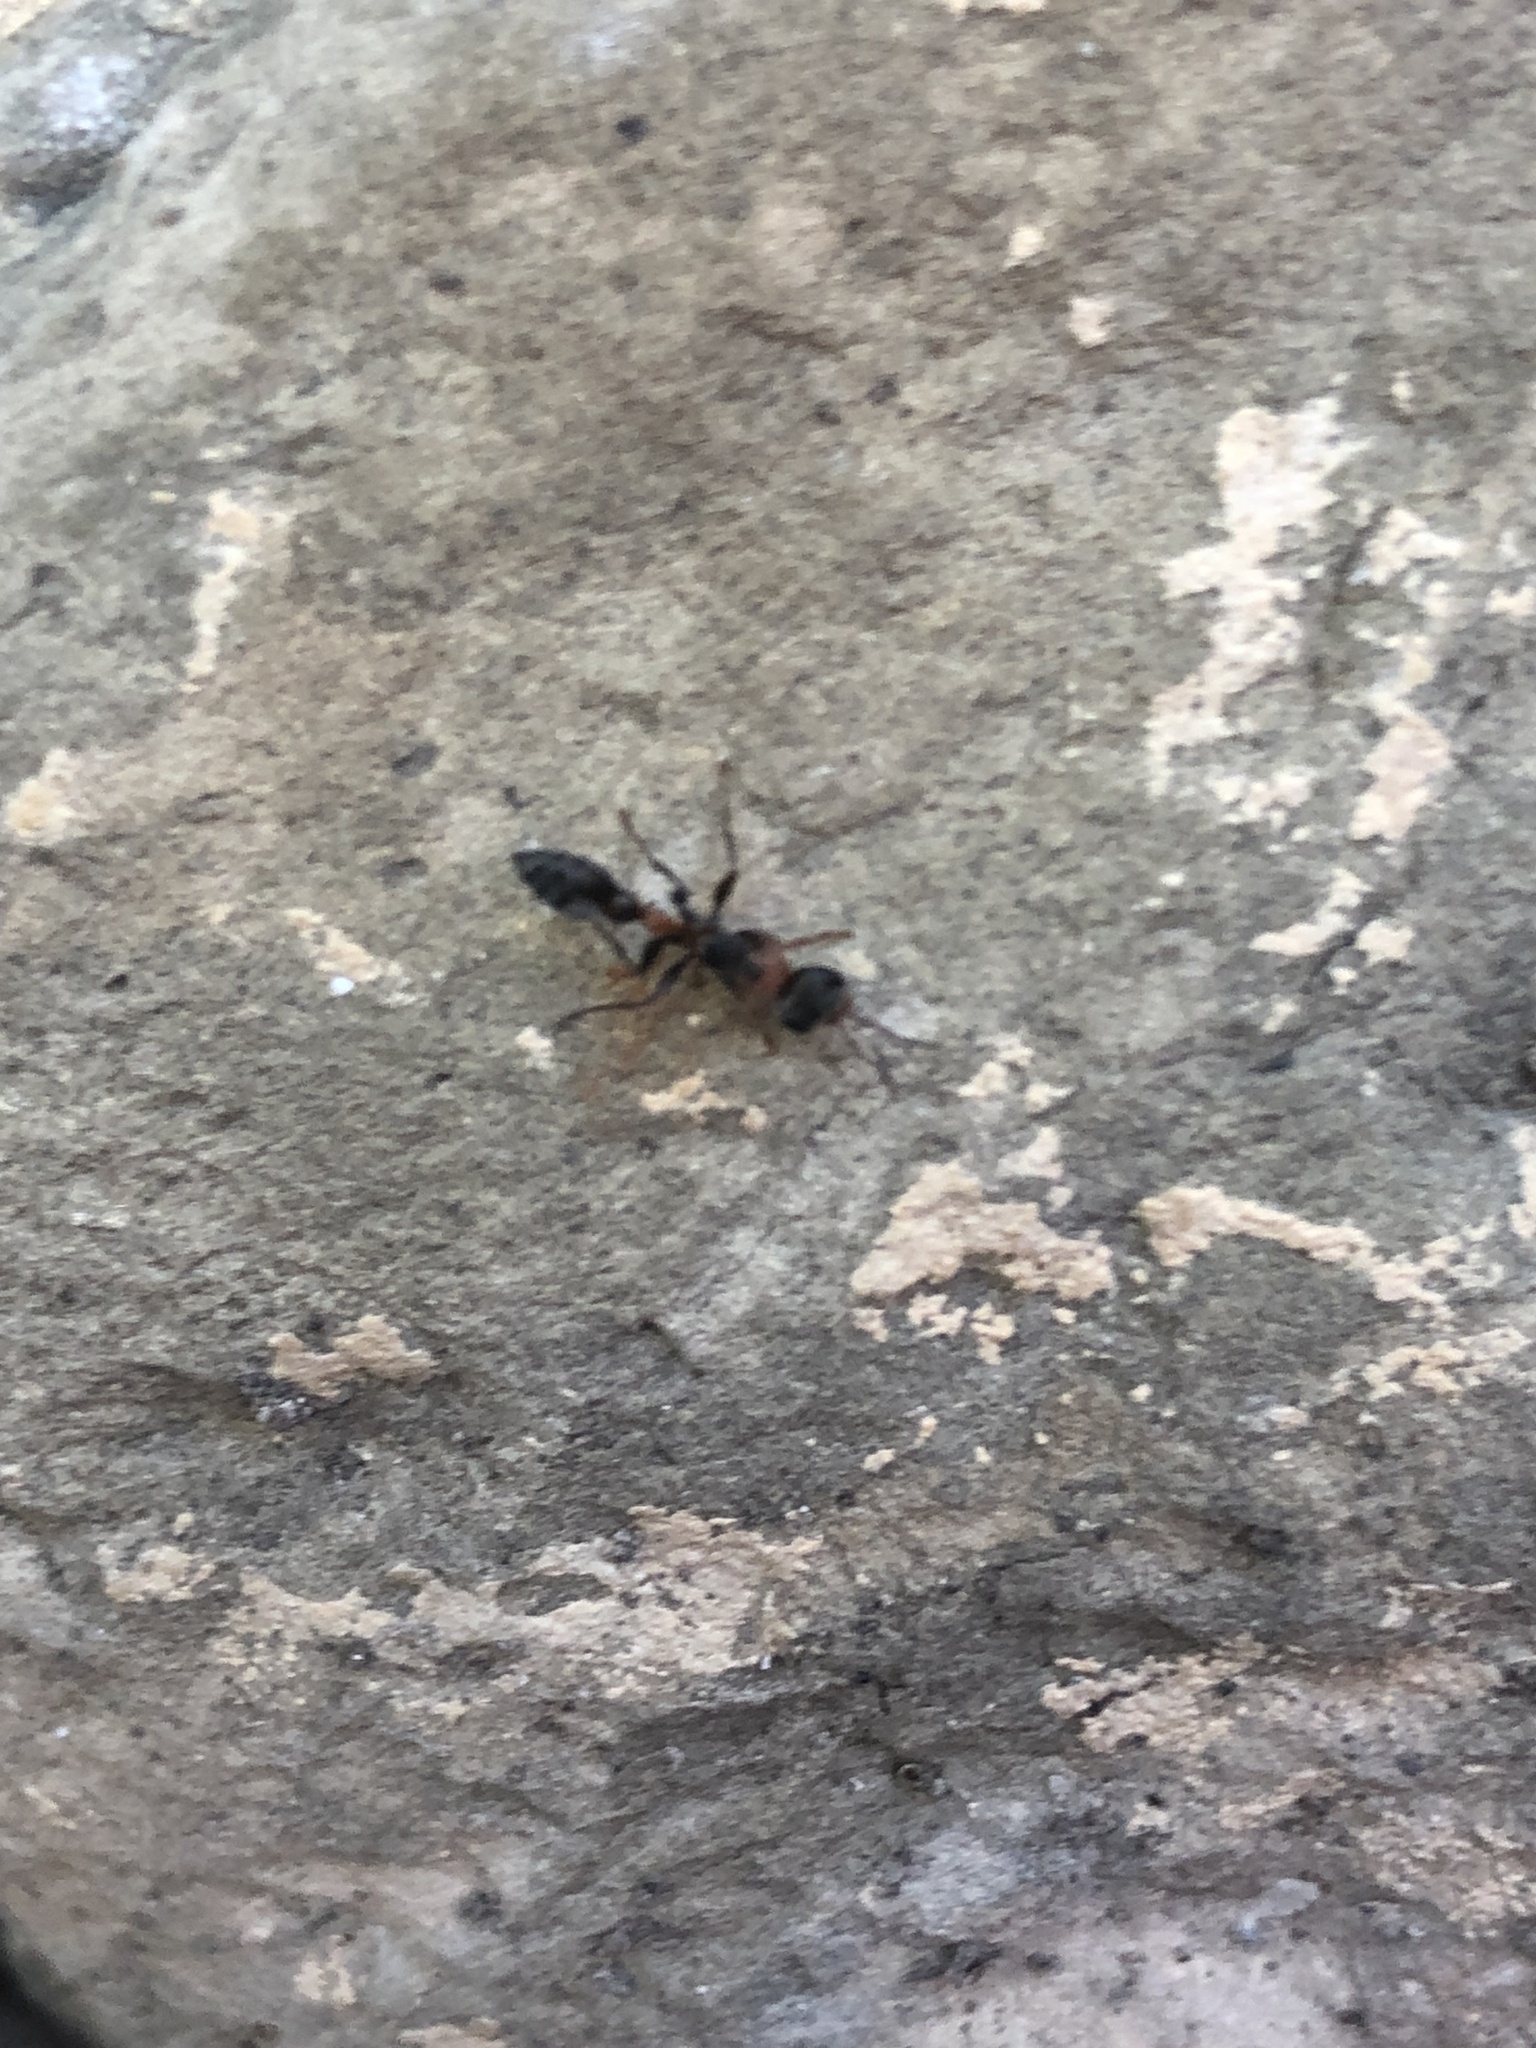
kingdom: Animalia
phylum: Arthropoda
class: Insecta
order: Hymenoptera
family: Formicidae
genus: Pseudomyrmex
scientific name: Pseudomyrmex gracilis
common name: Graceful twig ant
